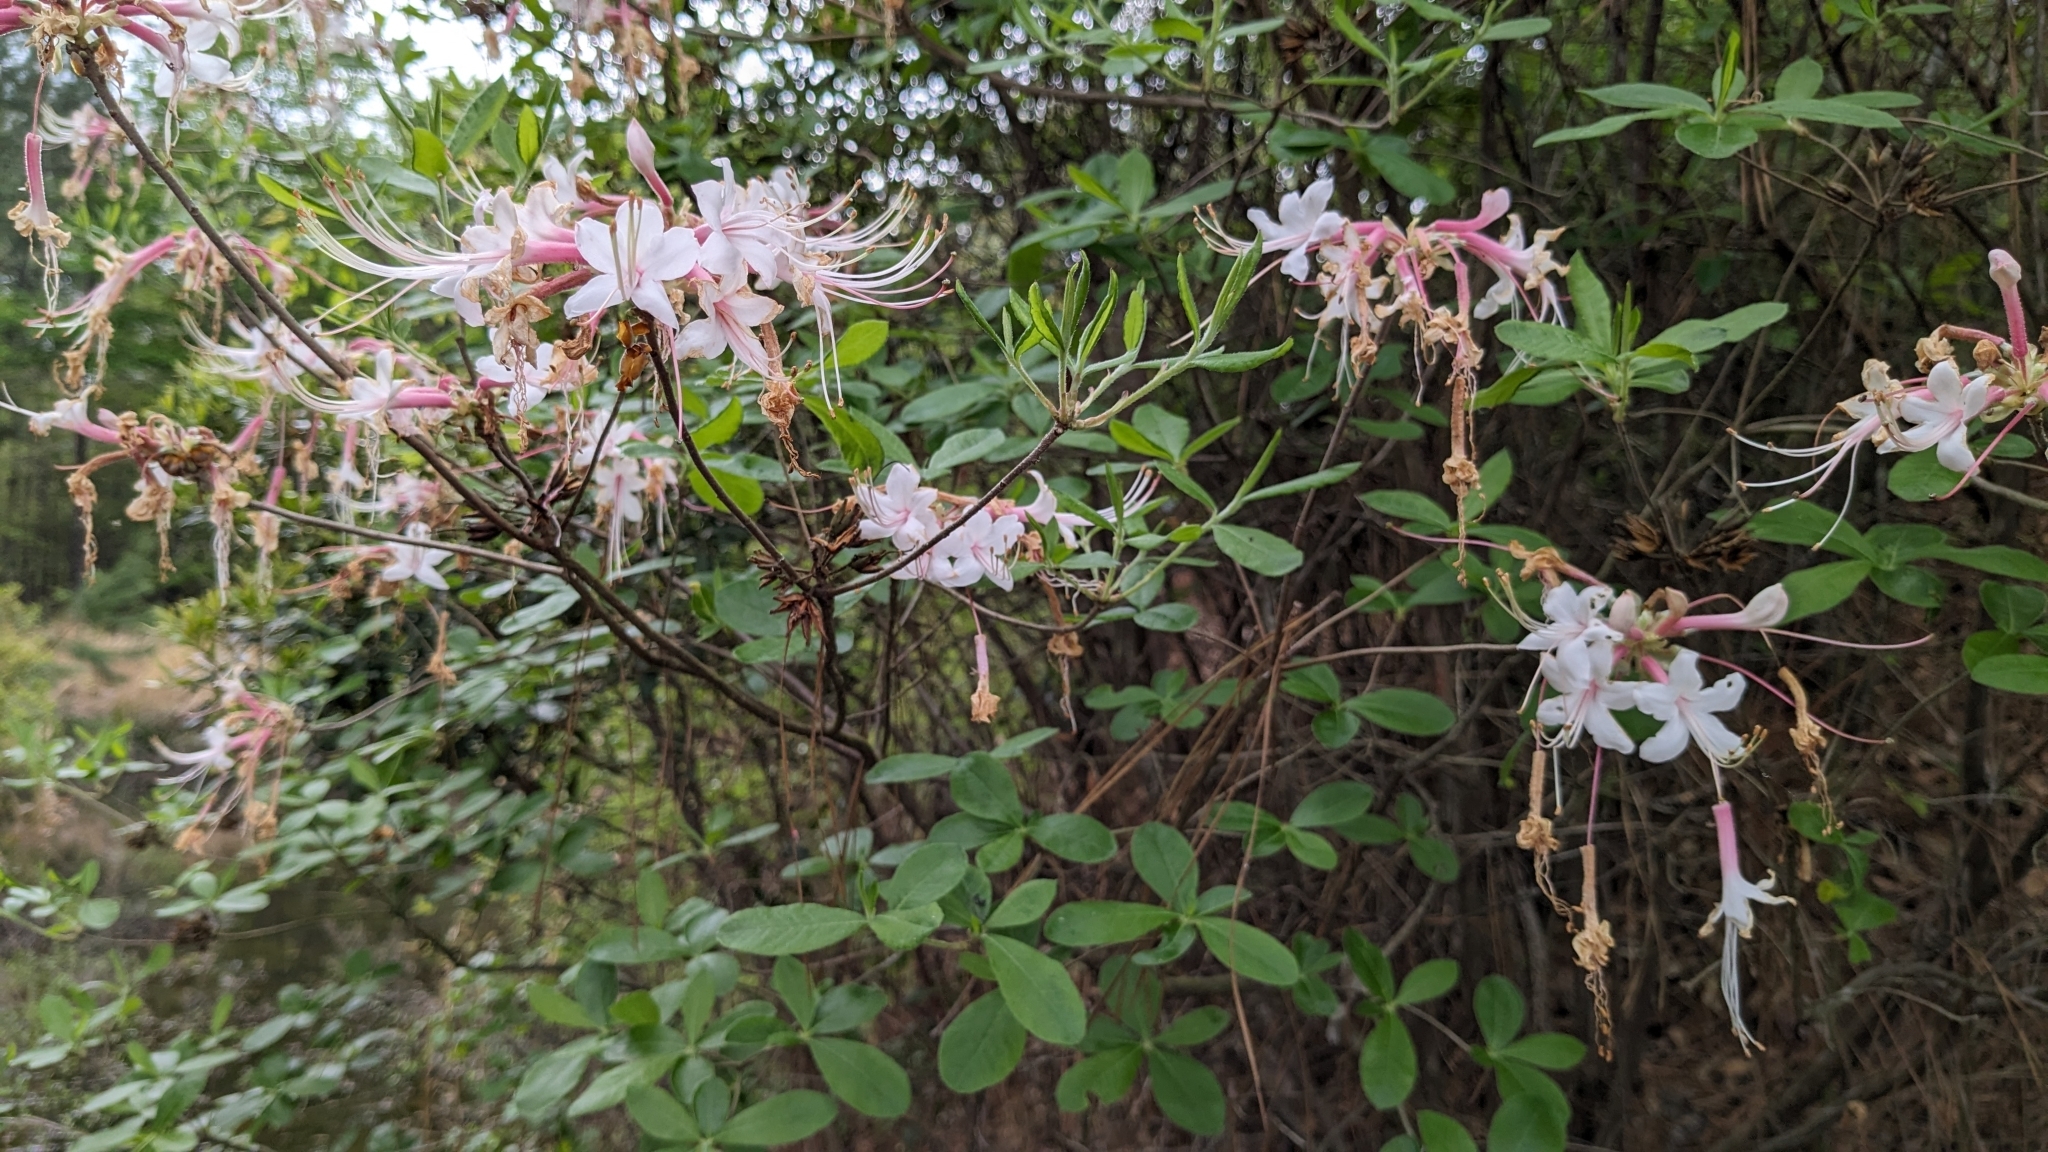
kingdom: Plantae
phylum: Tracheophyta
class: Magnoliopsida
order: Ericales
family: Ericaceae
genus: Rhododendron
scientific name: Rhododendron canescens
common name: Mountain azalea
